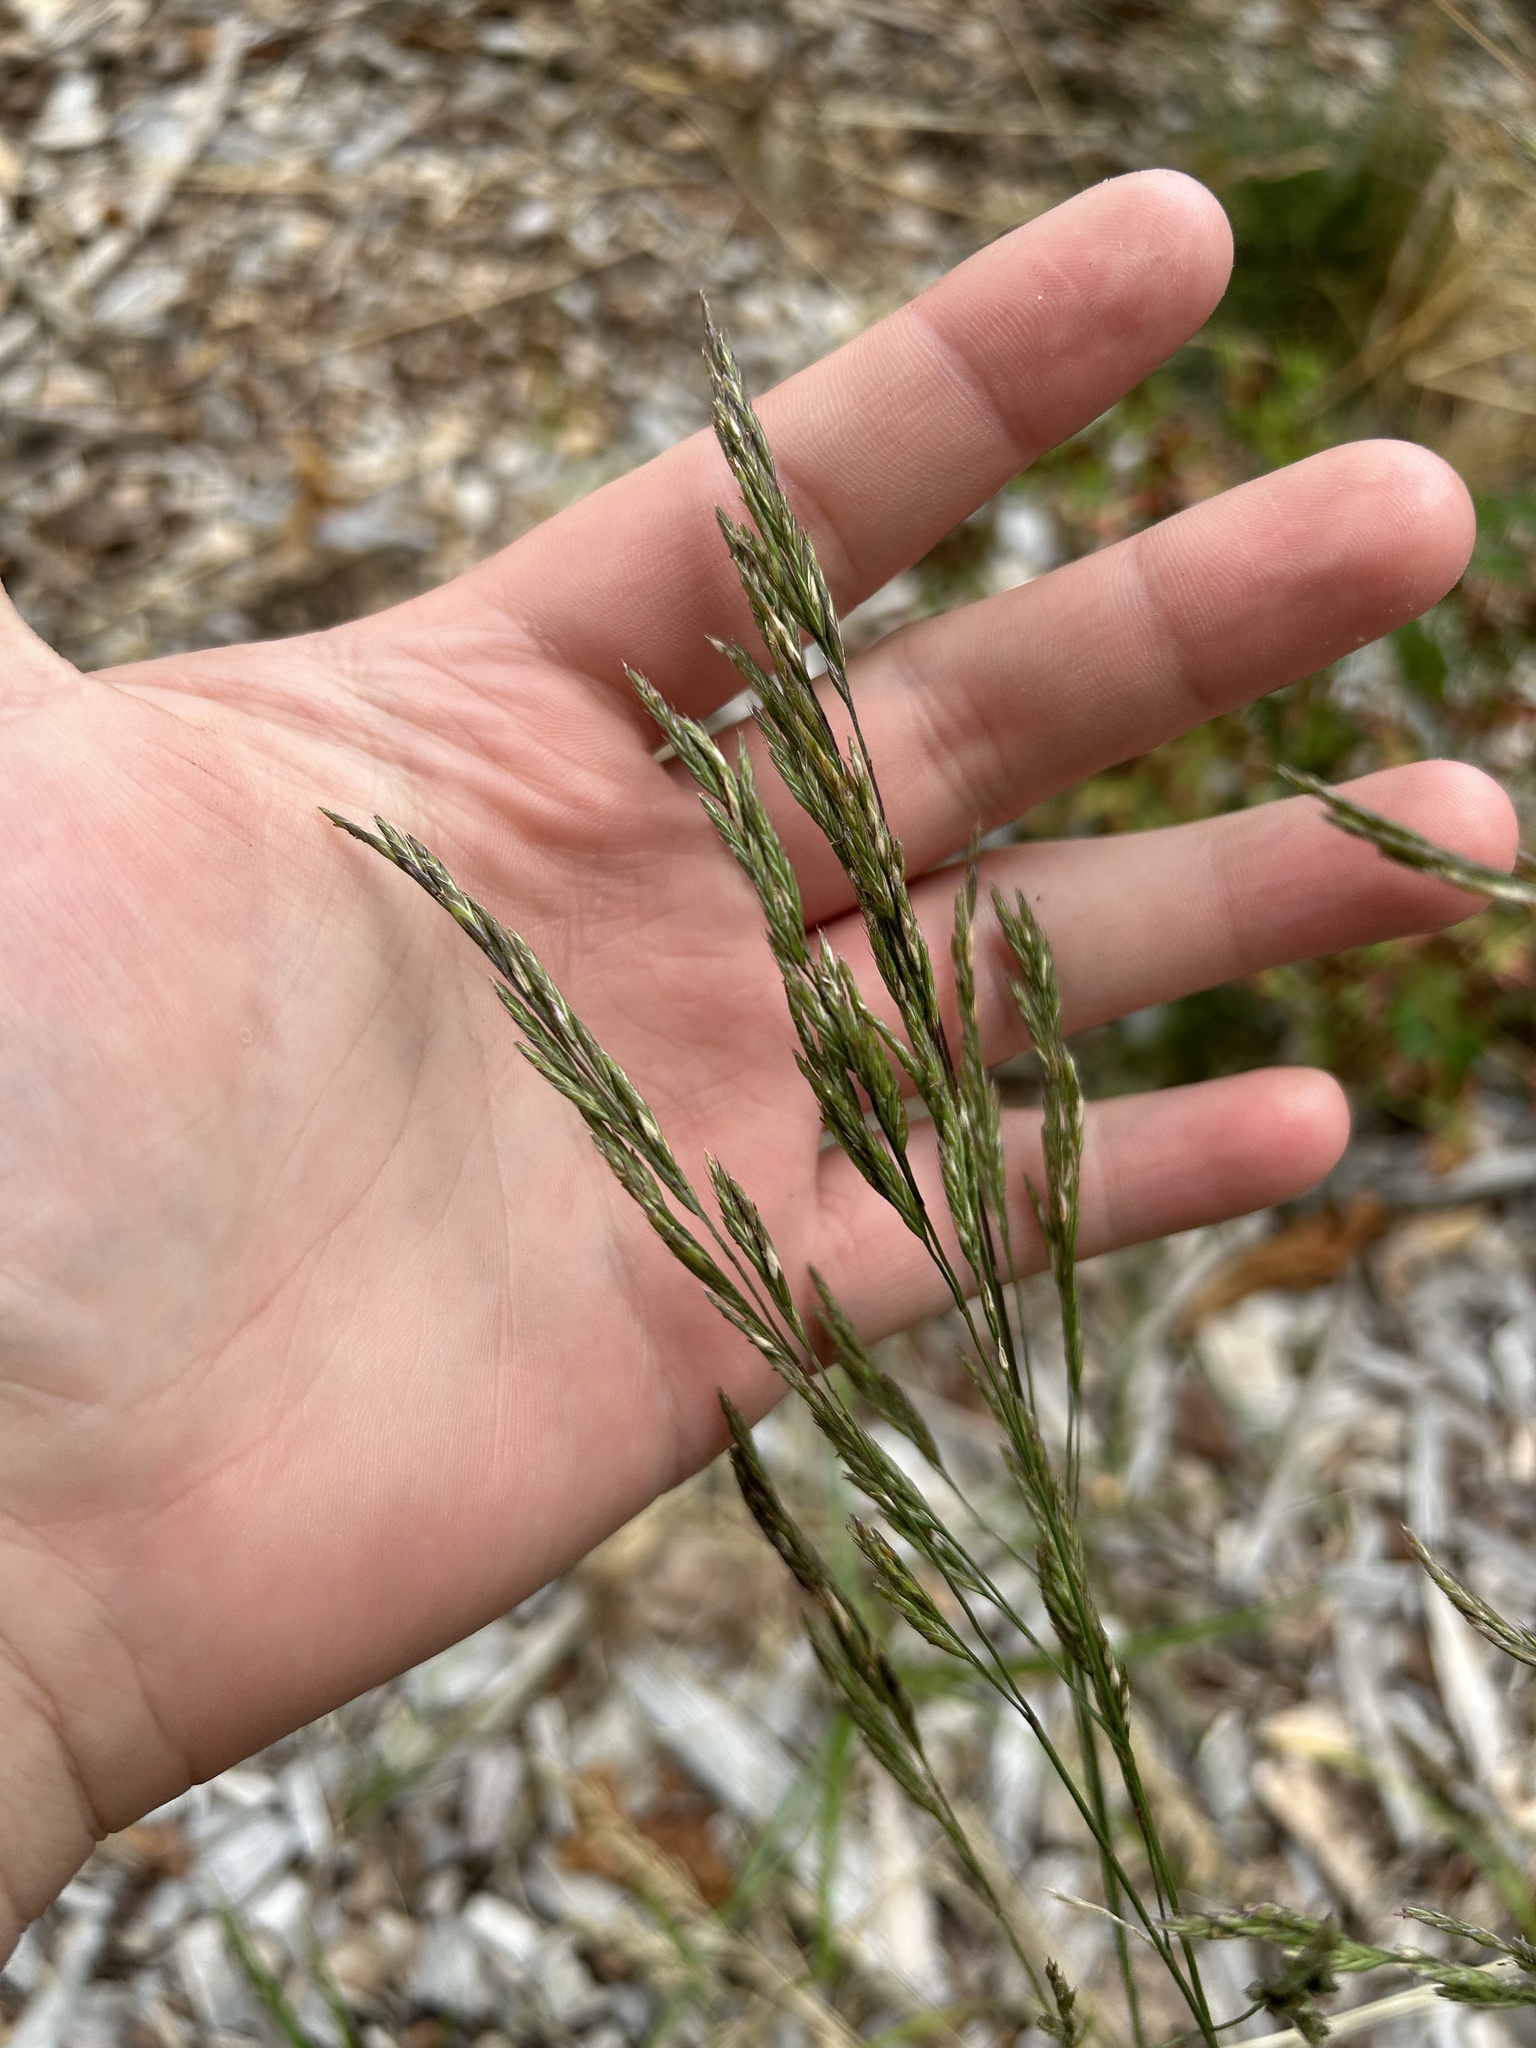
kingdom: Plantae
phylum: Tracheophyta
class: Liliopsida
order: Poales
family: Poaceae
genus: Tridens
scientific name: Tridens flavus
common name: Purpletop
